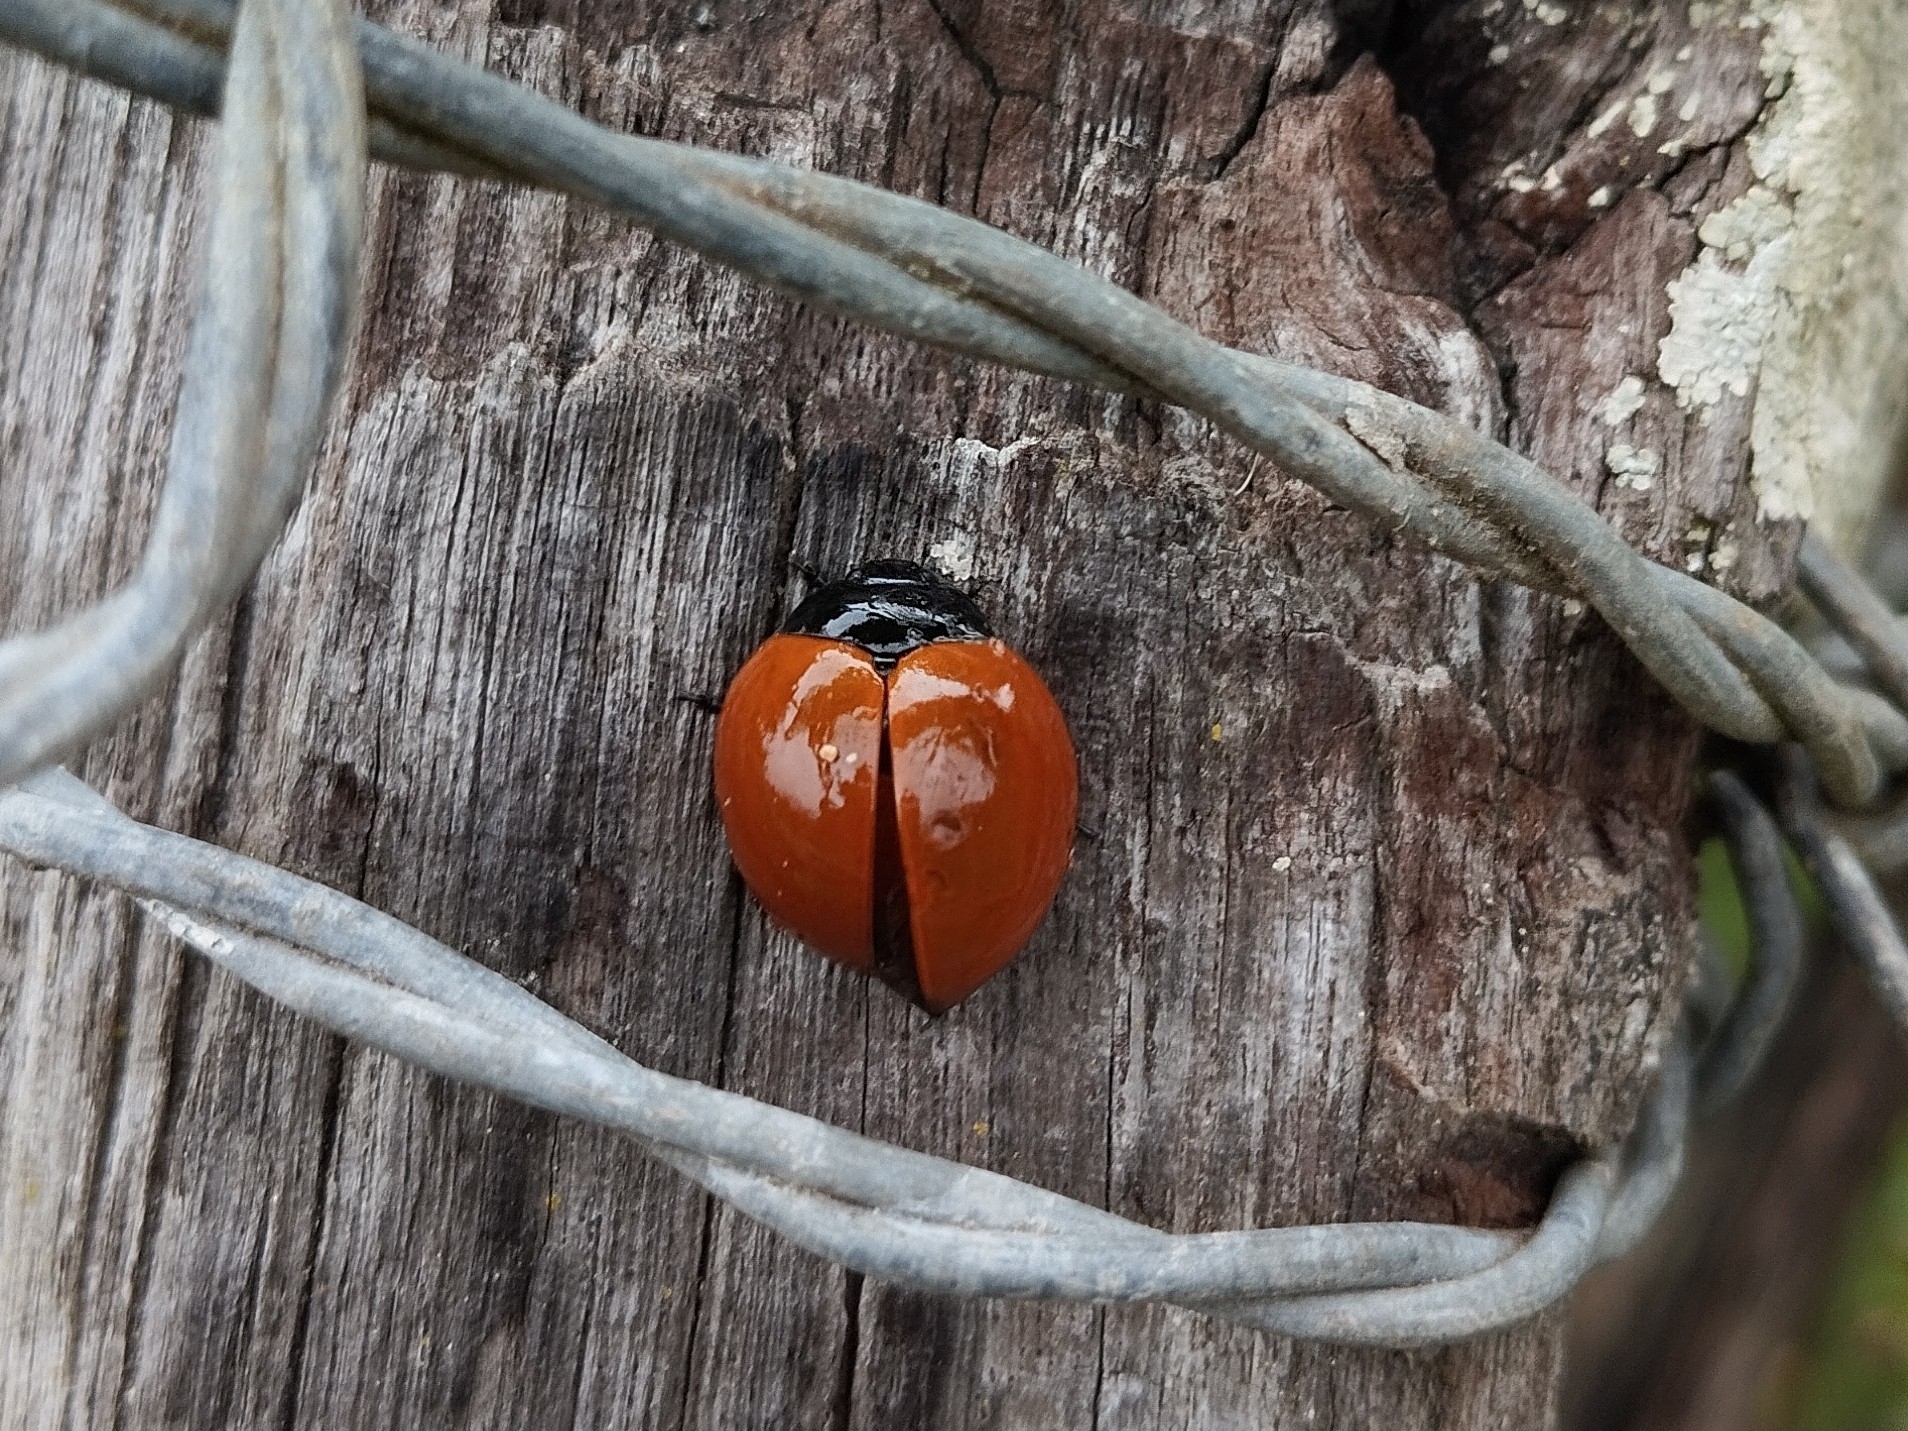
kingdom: Animalia
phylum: Arthropoda
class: Insecta
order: Coleoptera
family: Erotylidae
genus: Aegithus
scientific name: Aegithus
